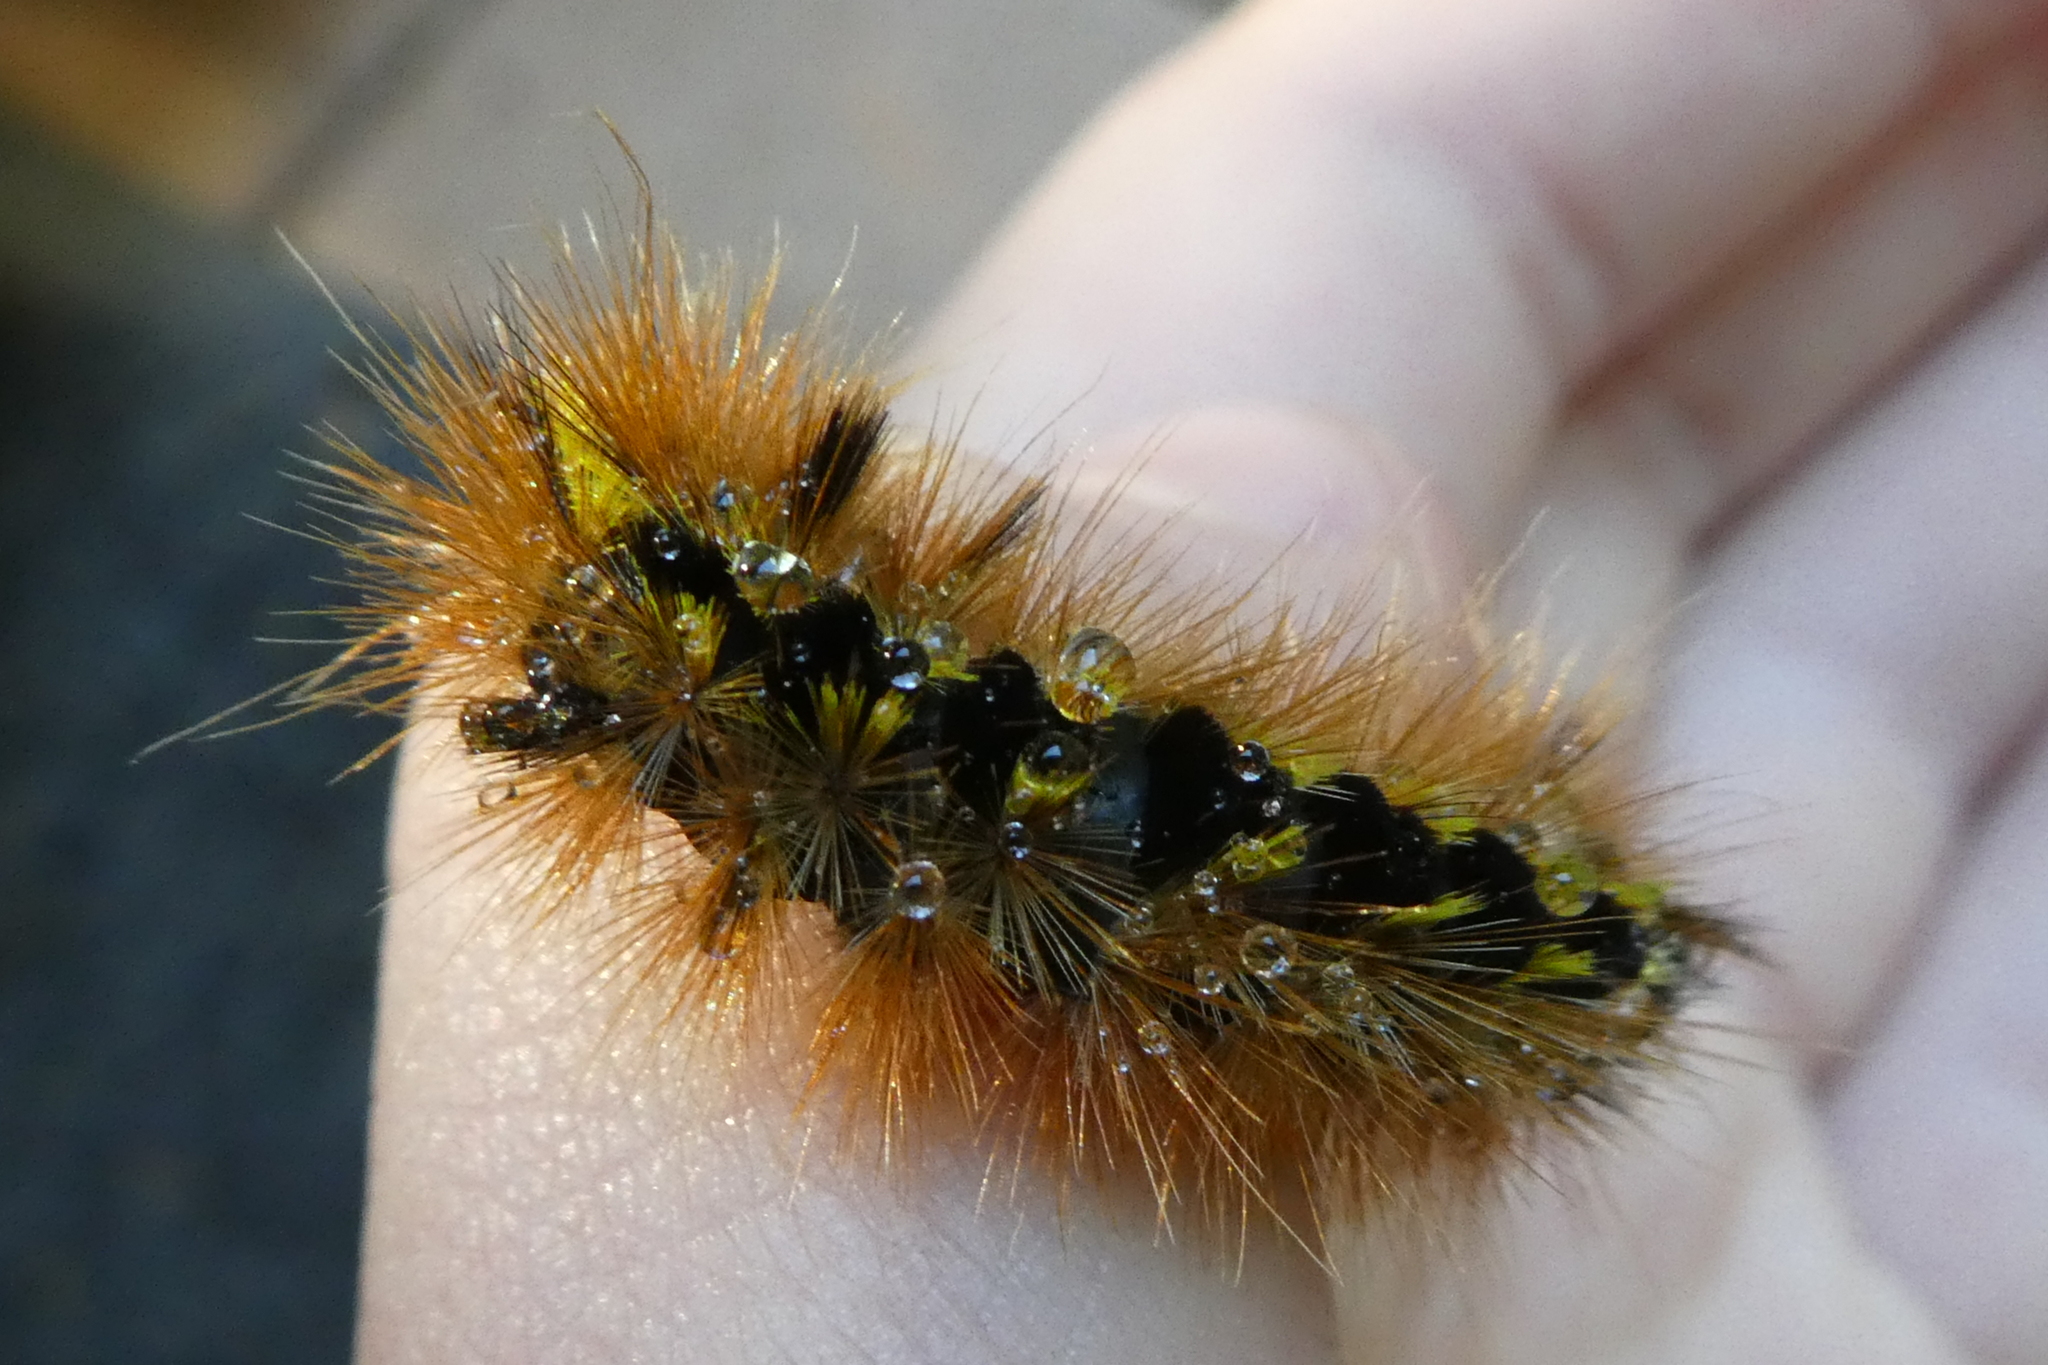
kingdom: Animalia
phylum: Arthropoda
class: Insecta
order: Lepidoptera
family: Erebidae
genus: Lophocampa
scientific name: Lophocampa argentata
